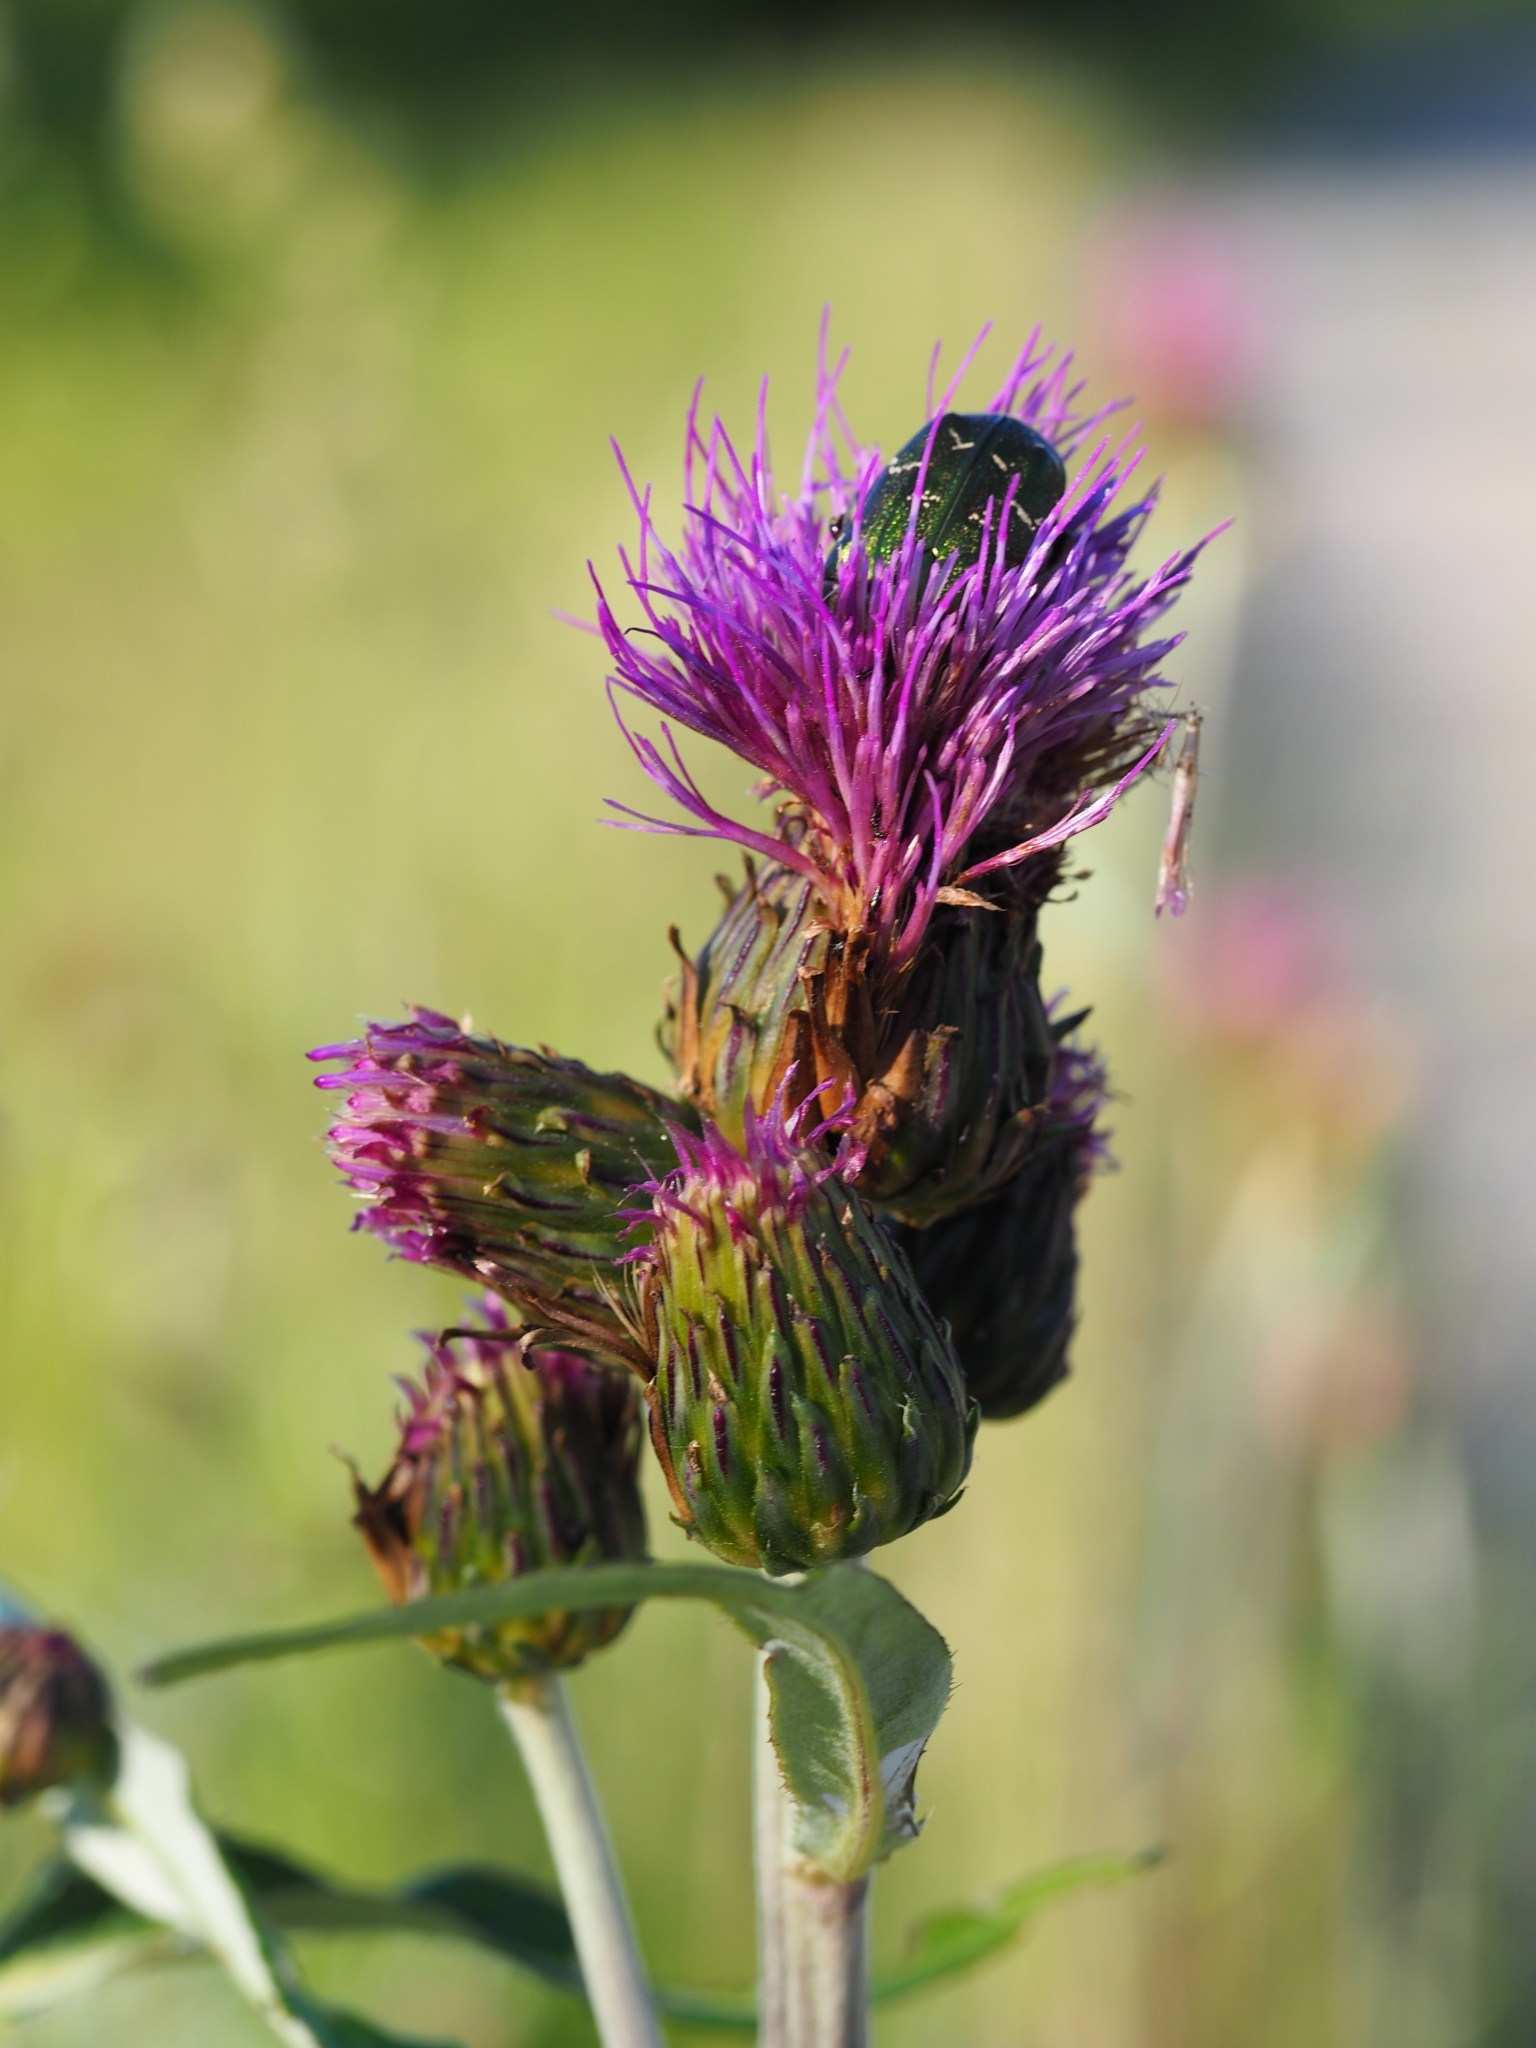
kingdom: Plantae
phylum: Tracheophyta
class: Magnoliopsida
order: Asterales
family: Asteraceae
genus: Cirsium
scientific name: Cirsium heterophyllum
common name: Melancholy thistle
